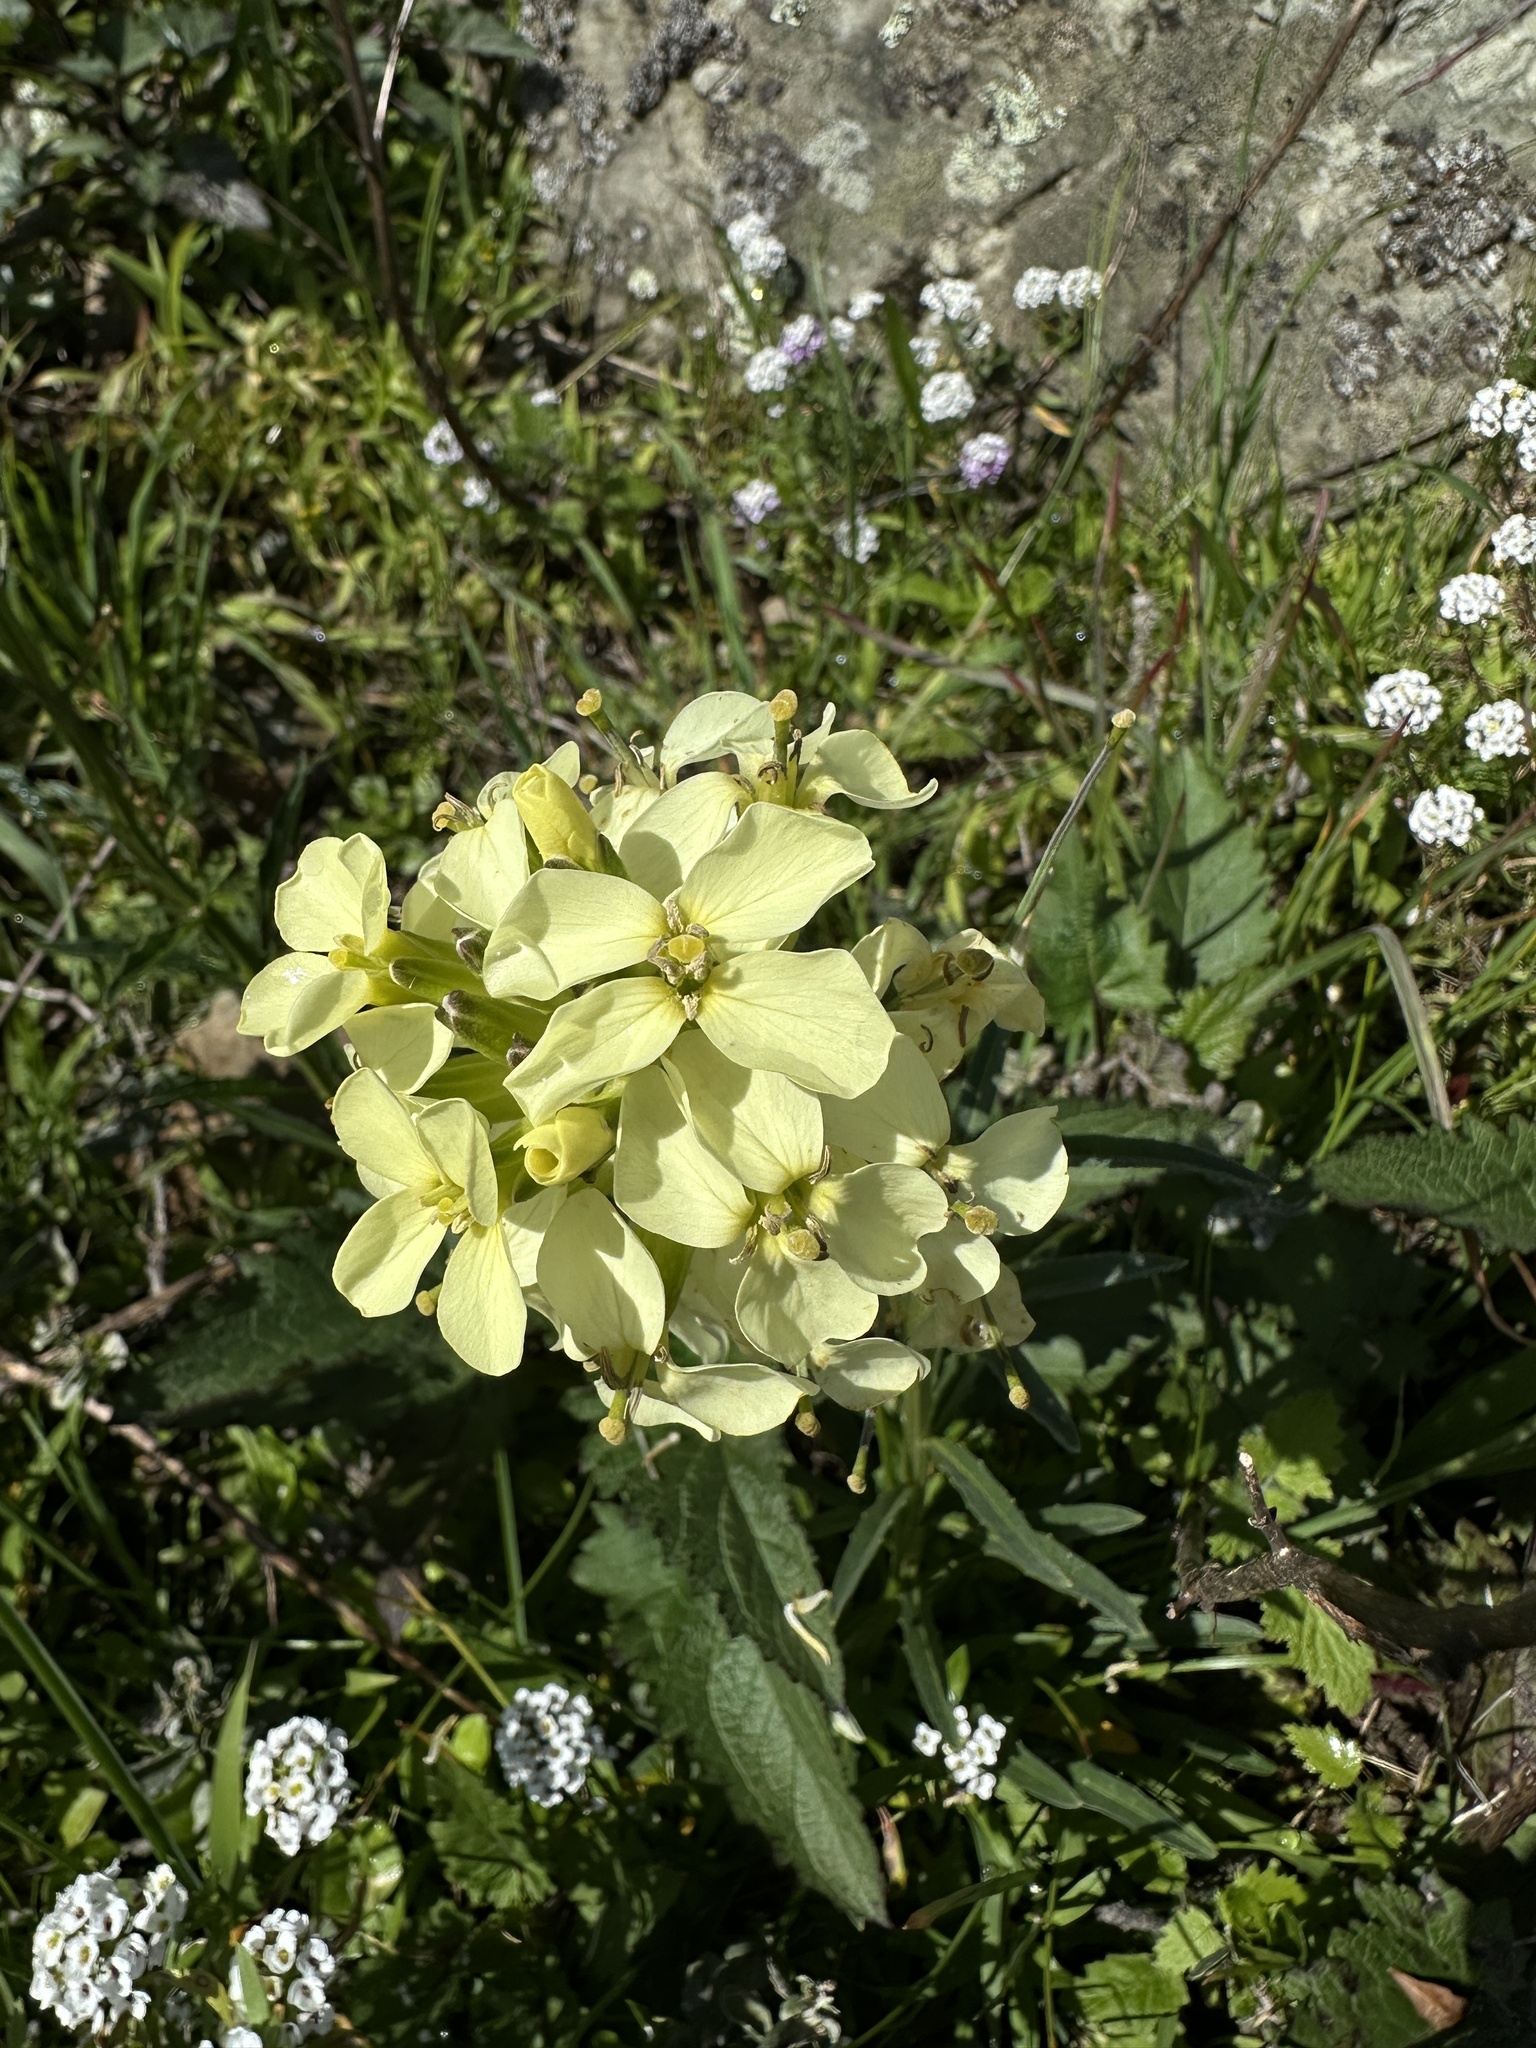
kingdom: Plantae
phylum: Tracheophyta
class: Magnoliopsida
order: Brassicales
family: Brassicaceae
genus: Erysimum
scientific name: Erysimum franciscanum
